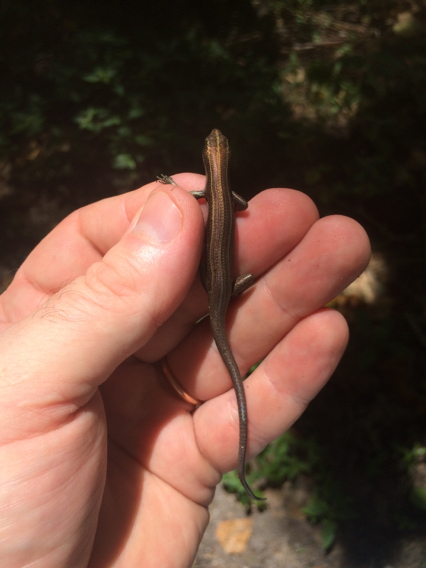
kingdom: Animalia
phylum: Chordata
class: Squamata
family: Scincidae
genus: Emoia
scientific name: Emoia caeruleocauda
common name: Pacific bluetail skink
